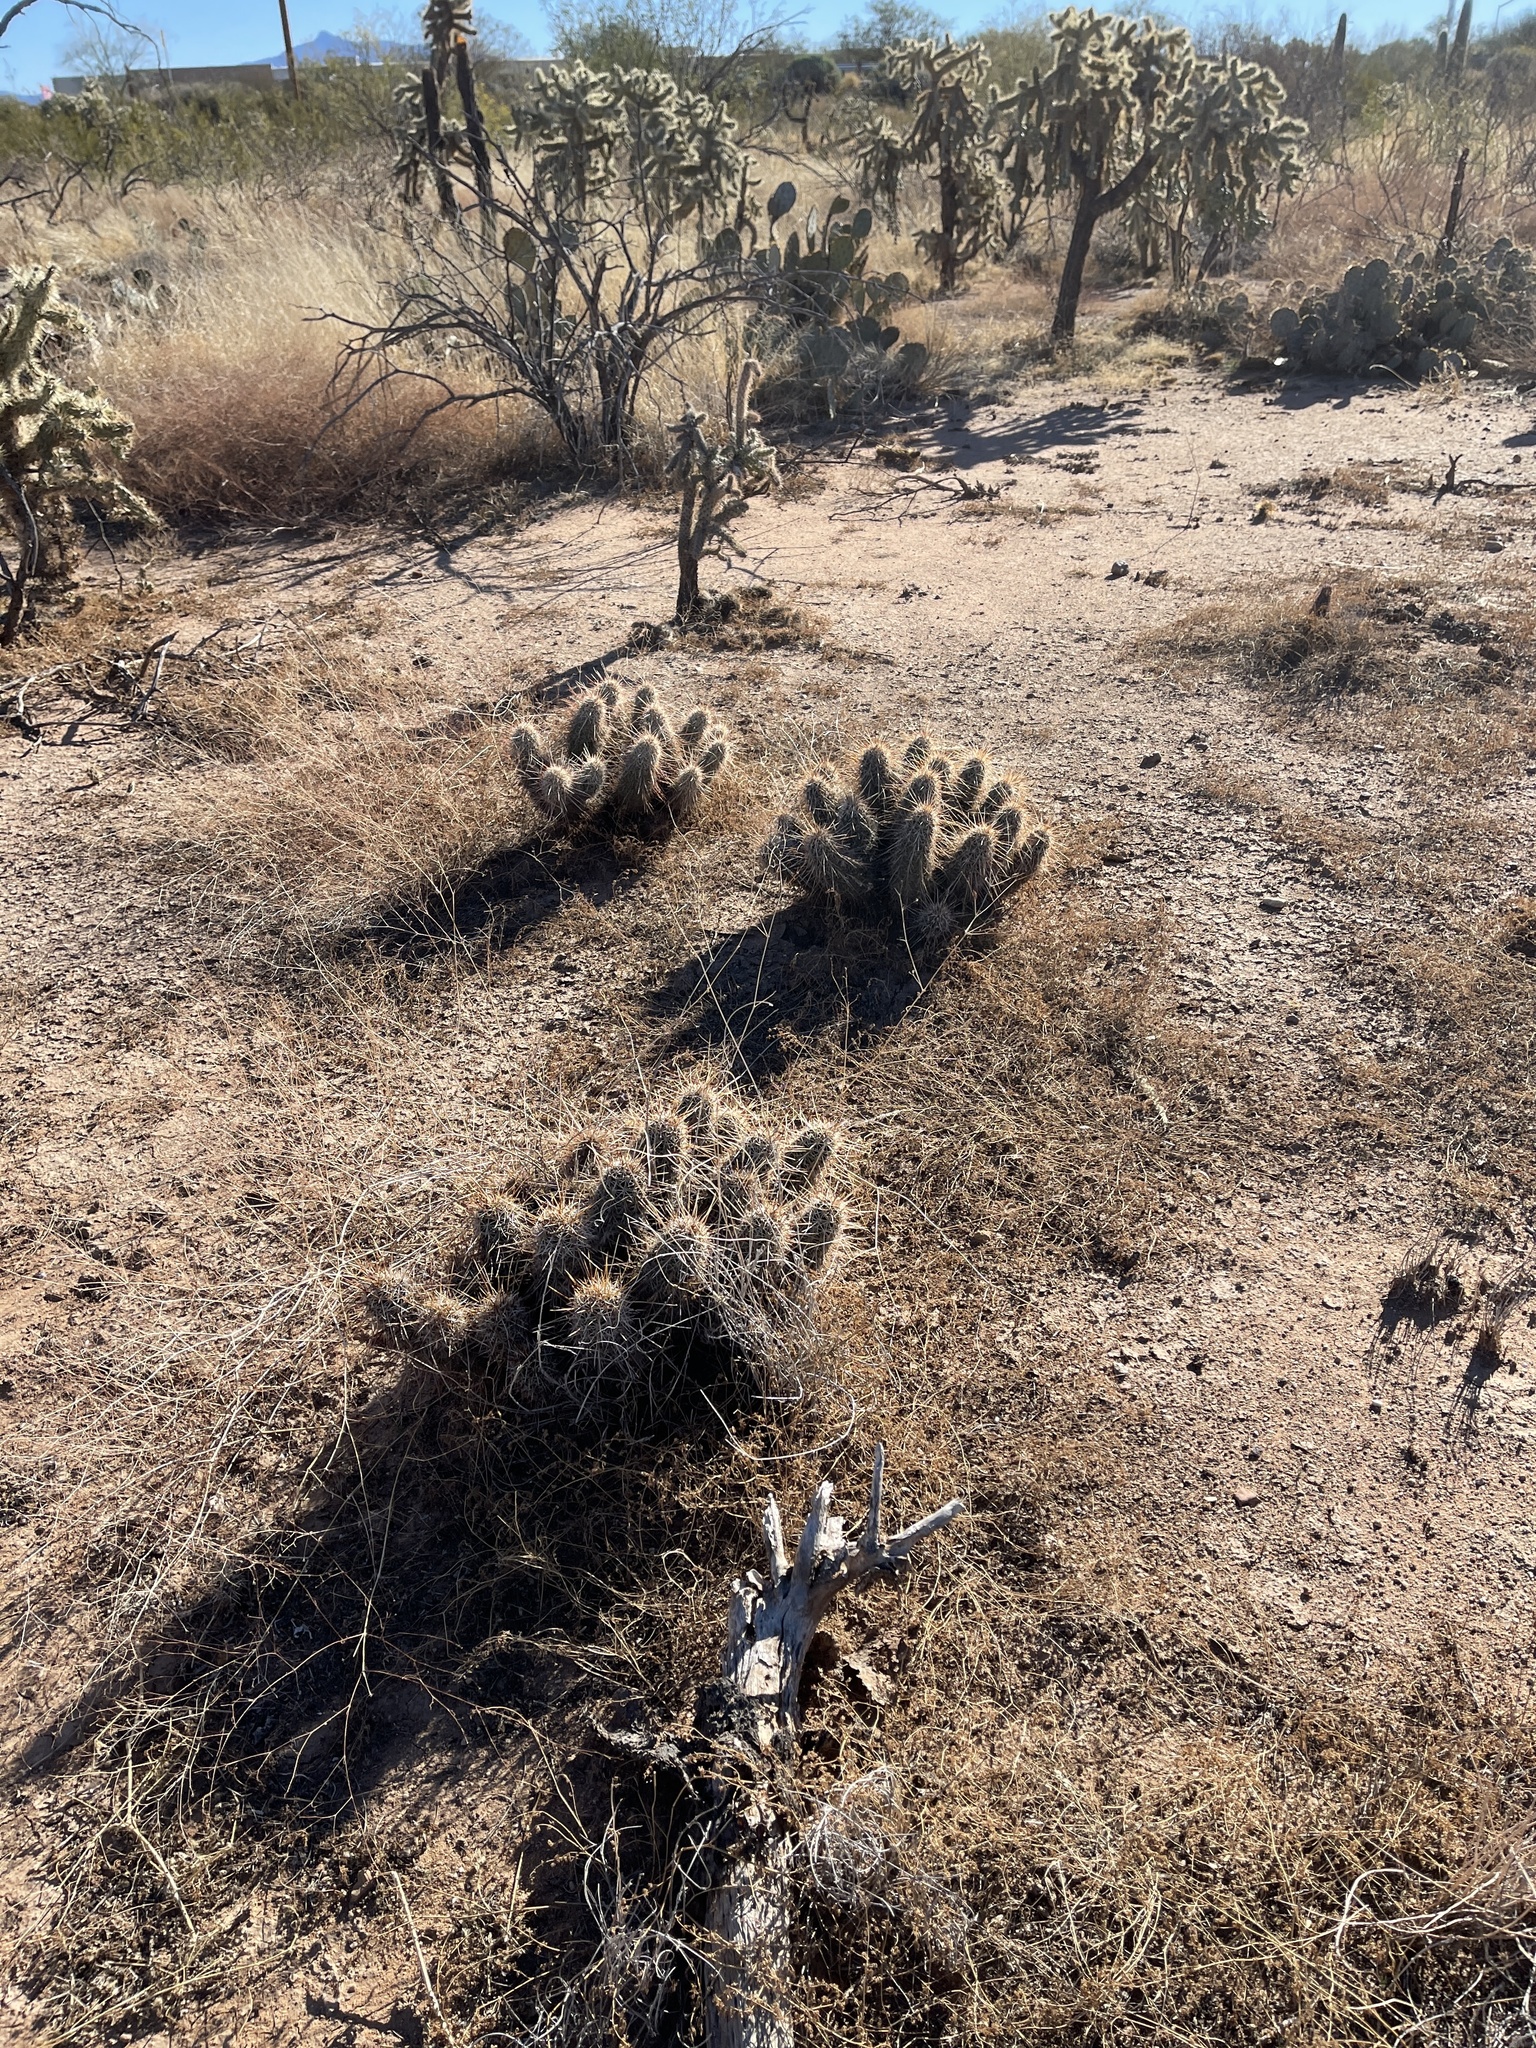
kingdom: Plantae
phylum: Tracheophyta
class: Magnoliopsida
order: Caryophyllales
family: Cactaceae
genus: Echinocereus
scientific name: Echinocereus fasciculatus
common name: Bundle hedgehog
